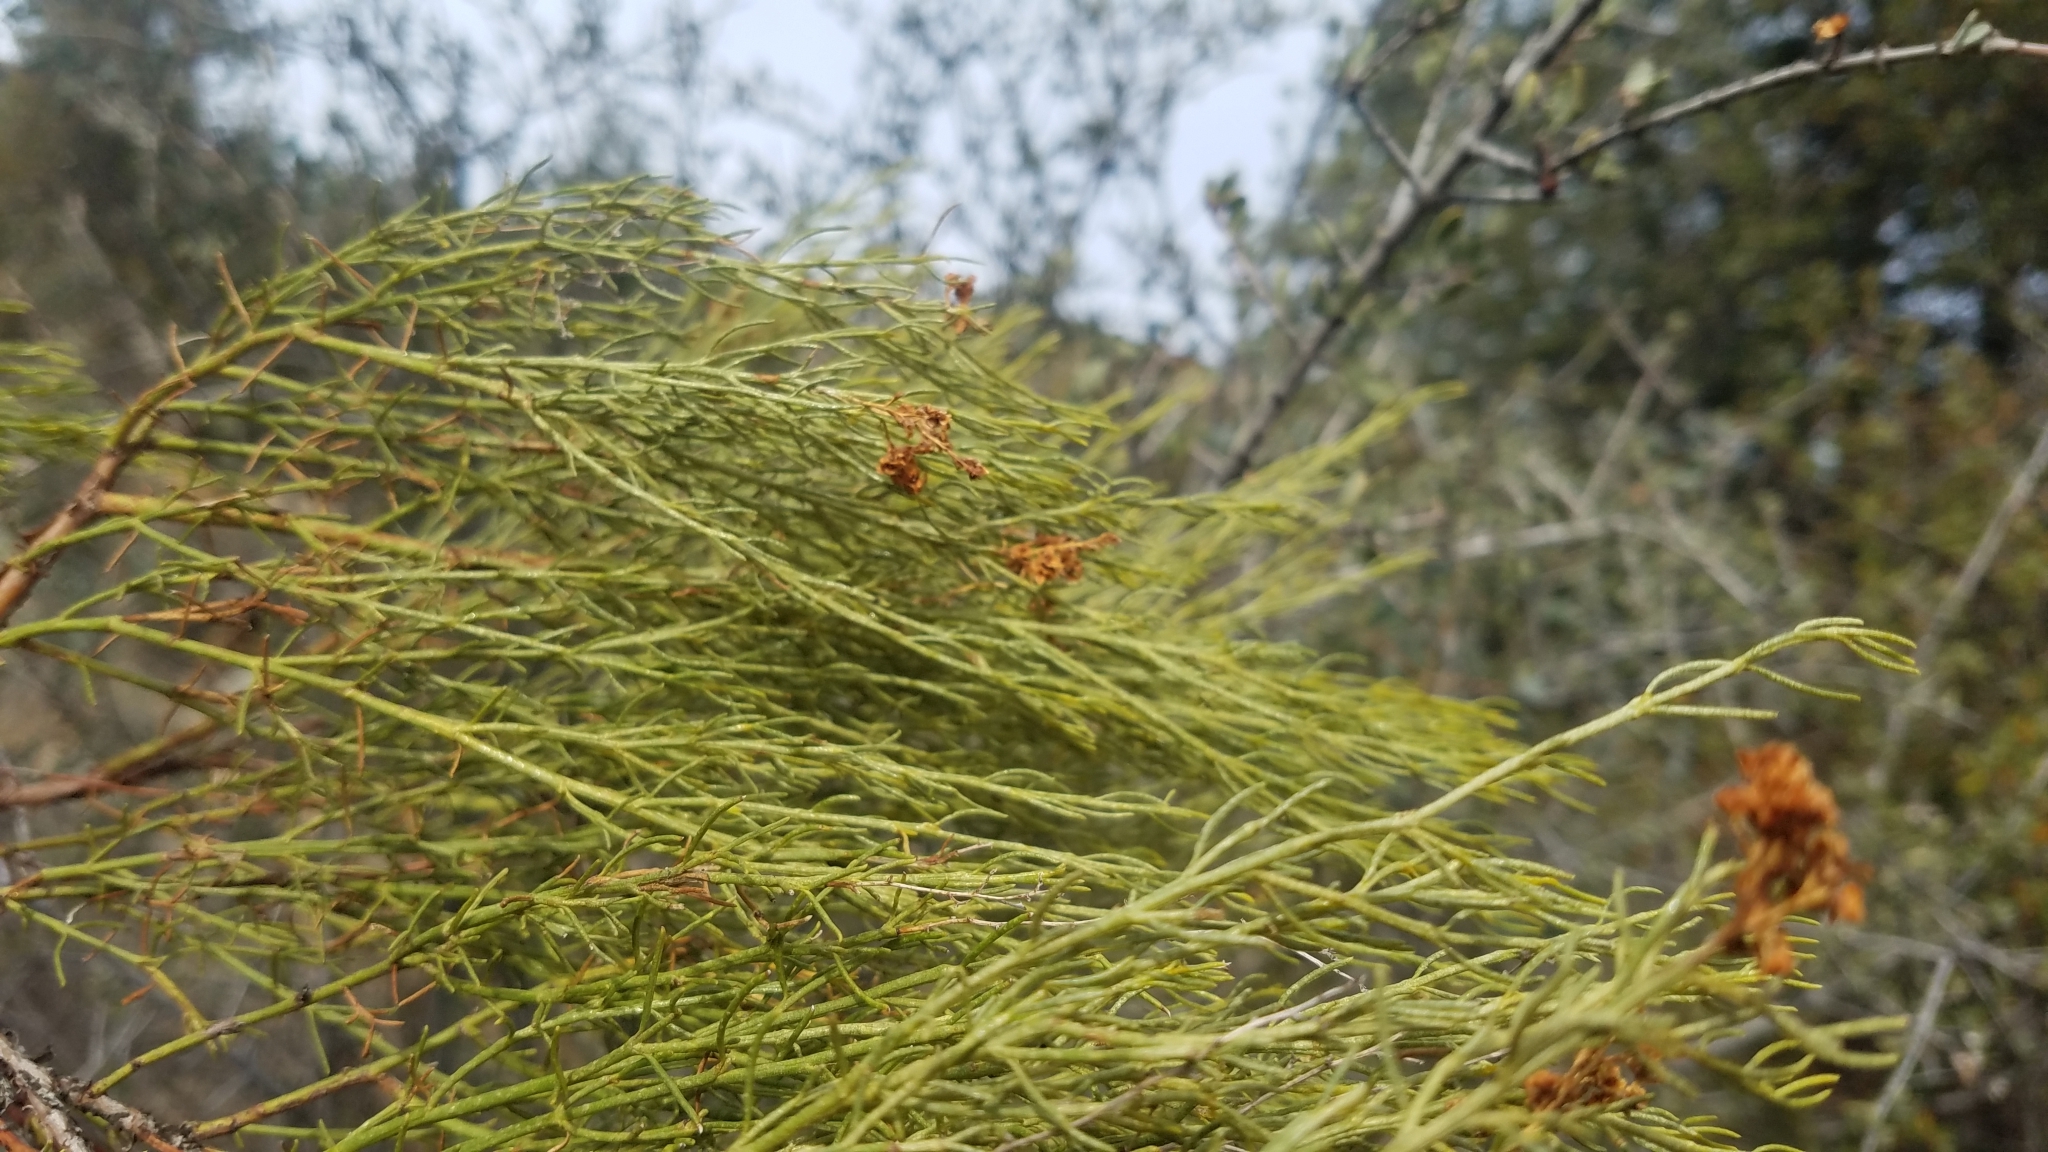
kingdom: Plantae
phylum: Tracheophyta
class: Magnoliopsida
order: Rosales
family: Rosaceae
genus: Adenostoma
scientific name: Adenostoma sparsifolium
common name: Red shank
